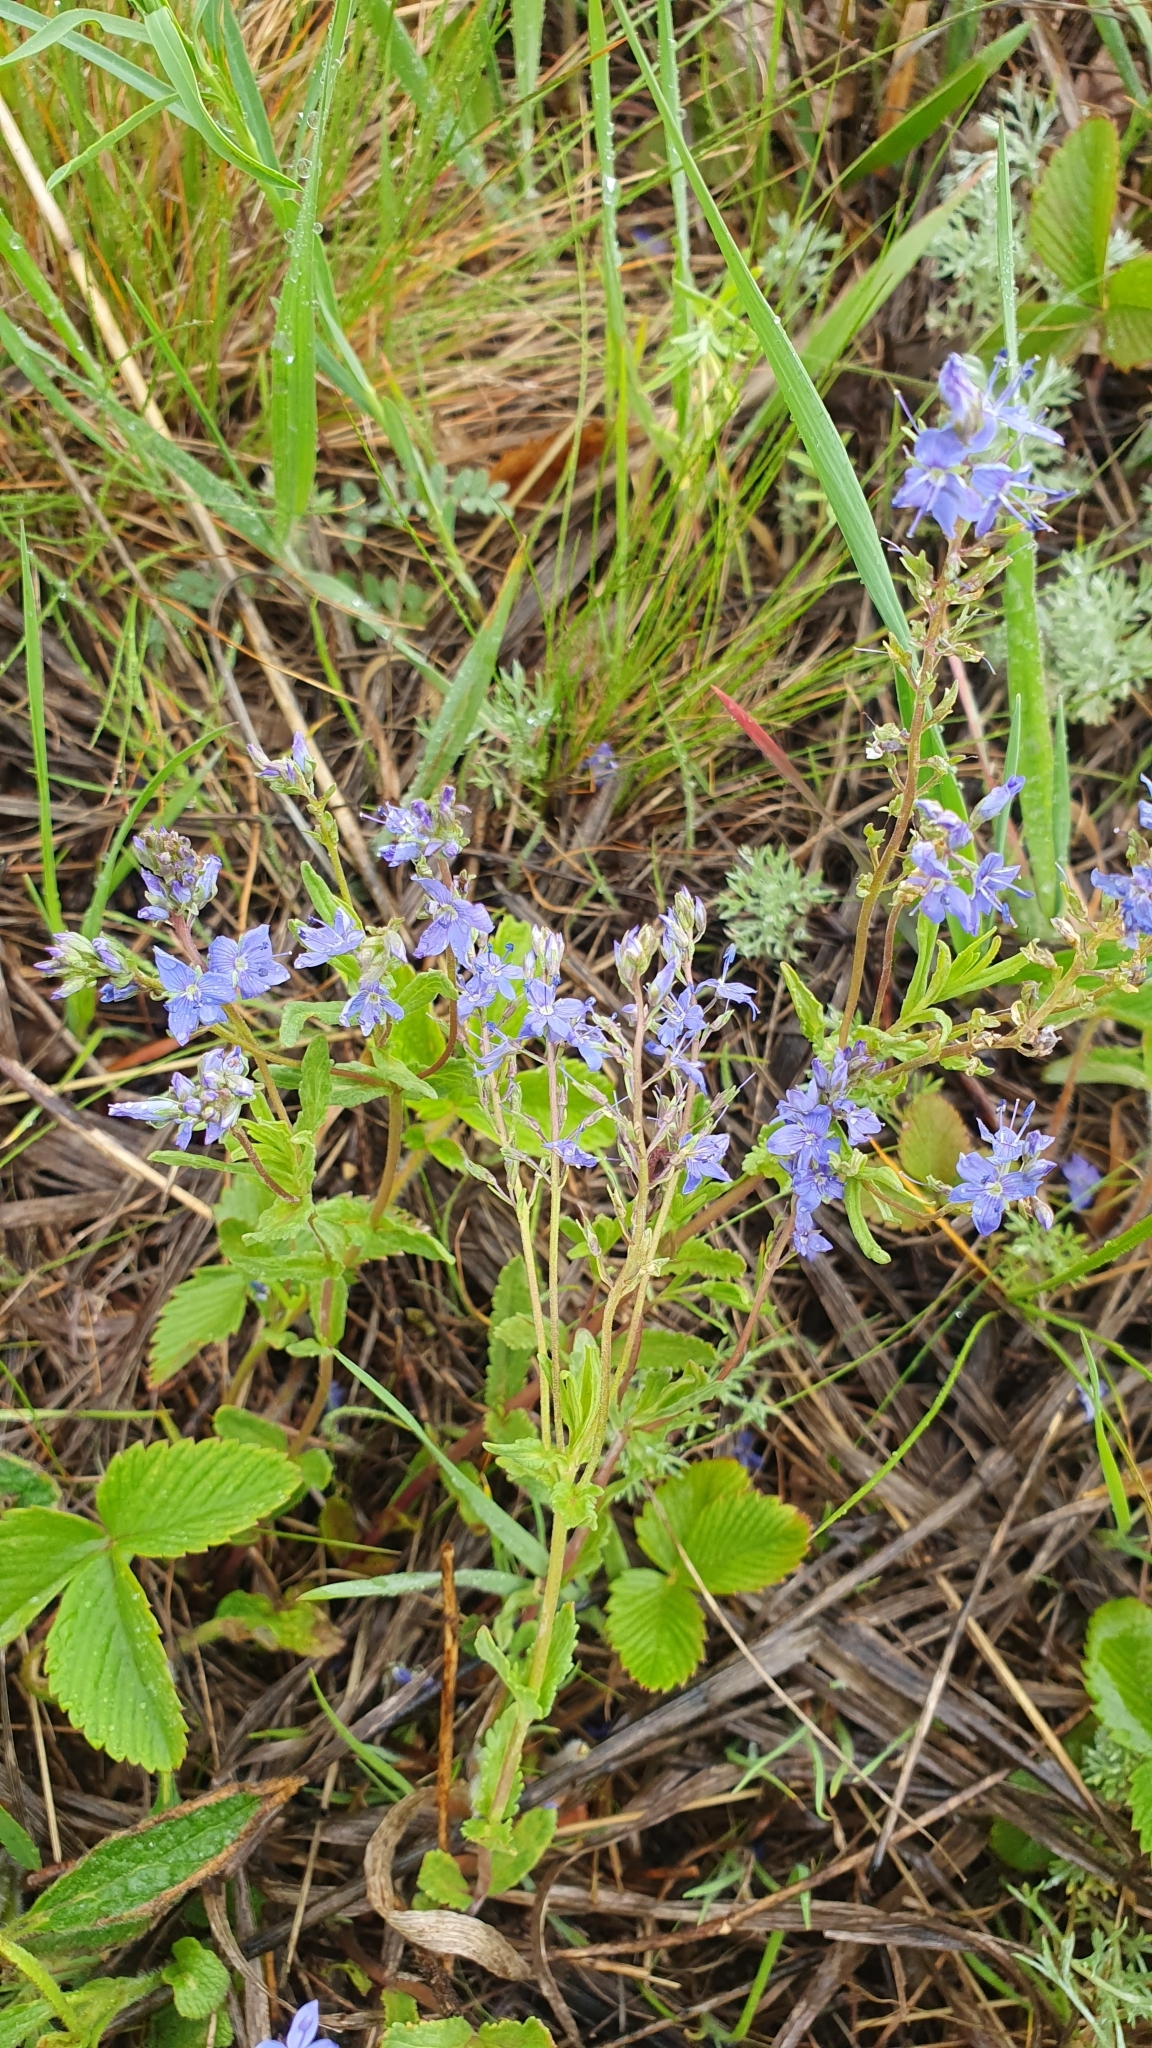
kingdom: Plantae
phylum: Tracheophyta
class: Magnoliopsida
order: Lamiales
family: Plantaginaceae
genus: Veronica
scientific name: Veronica prostrata
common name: Prostrate speedwell
